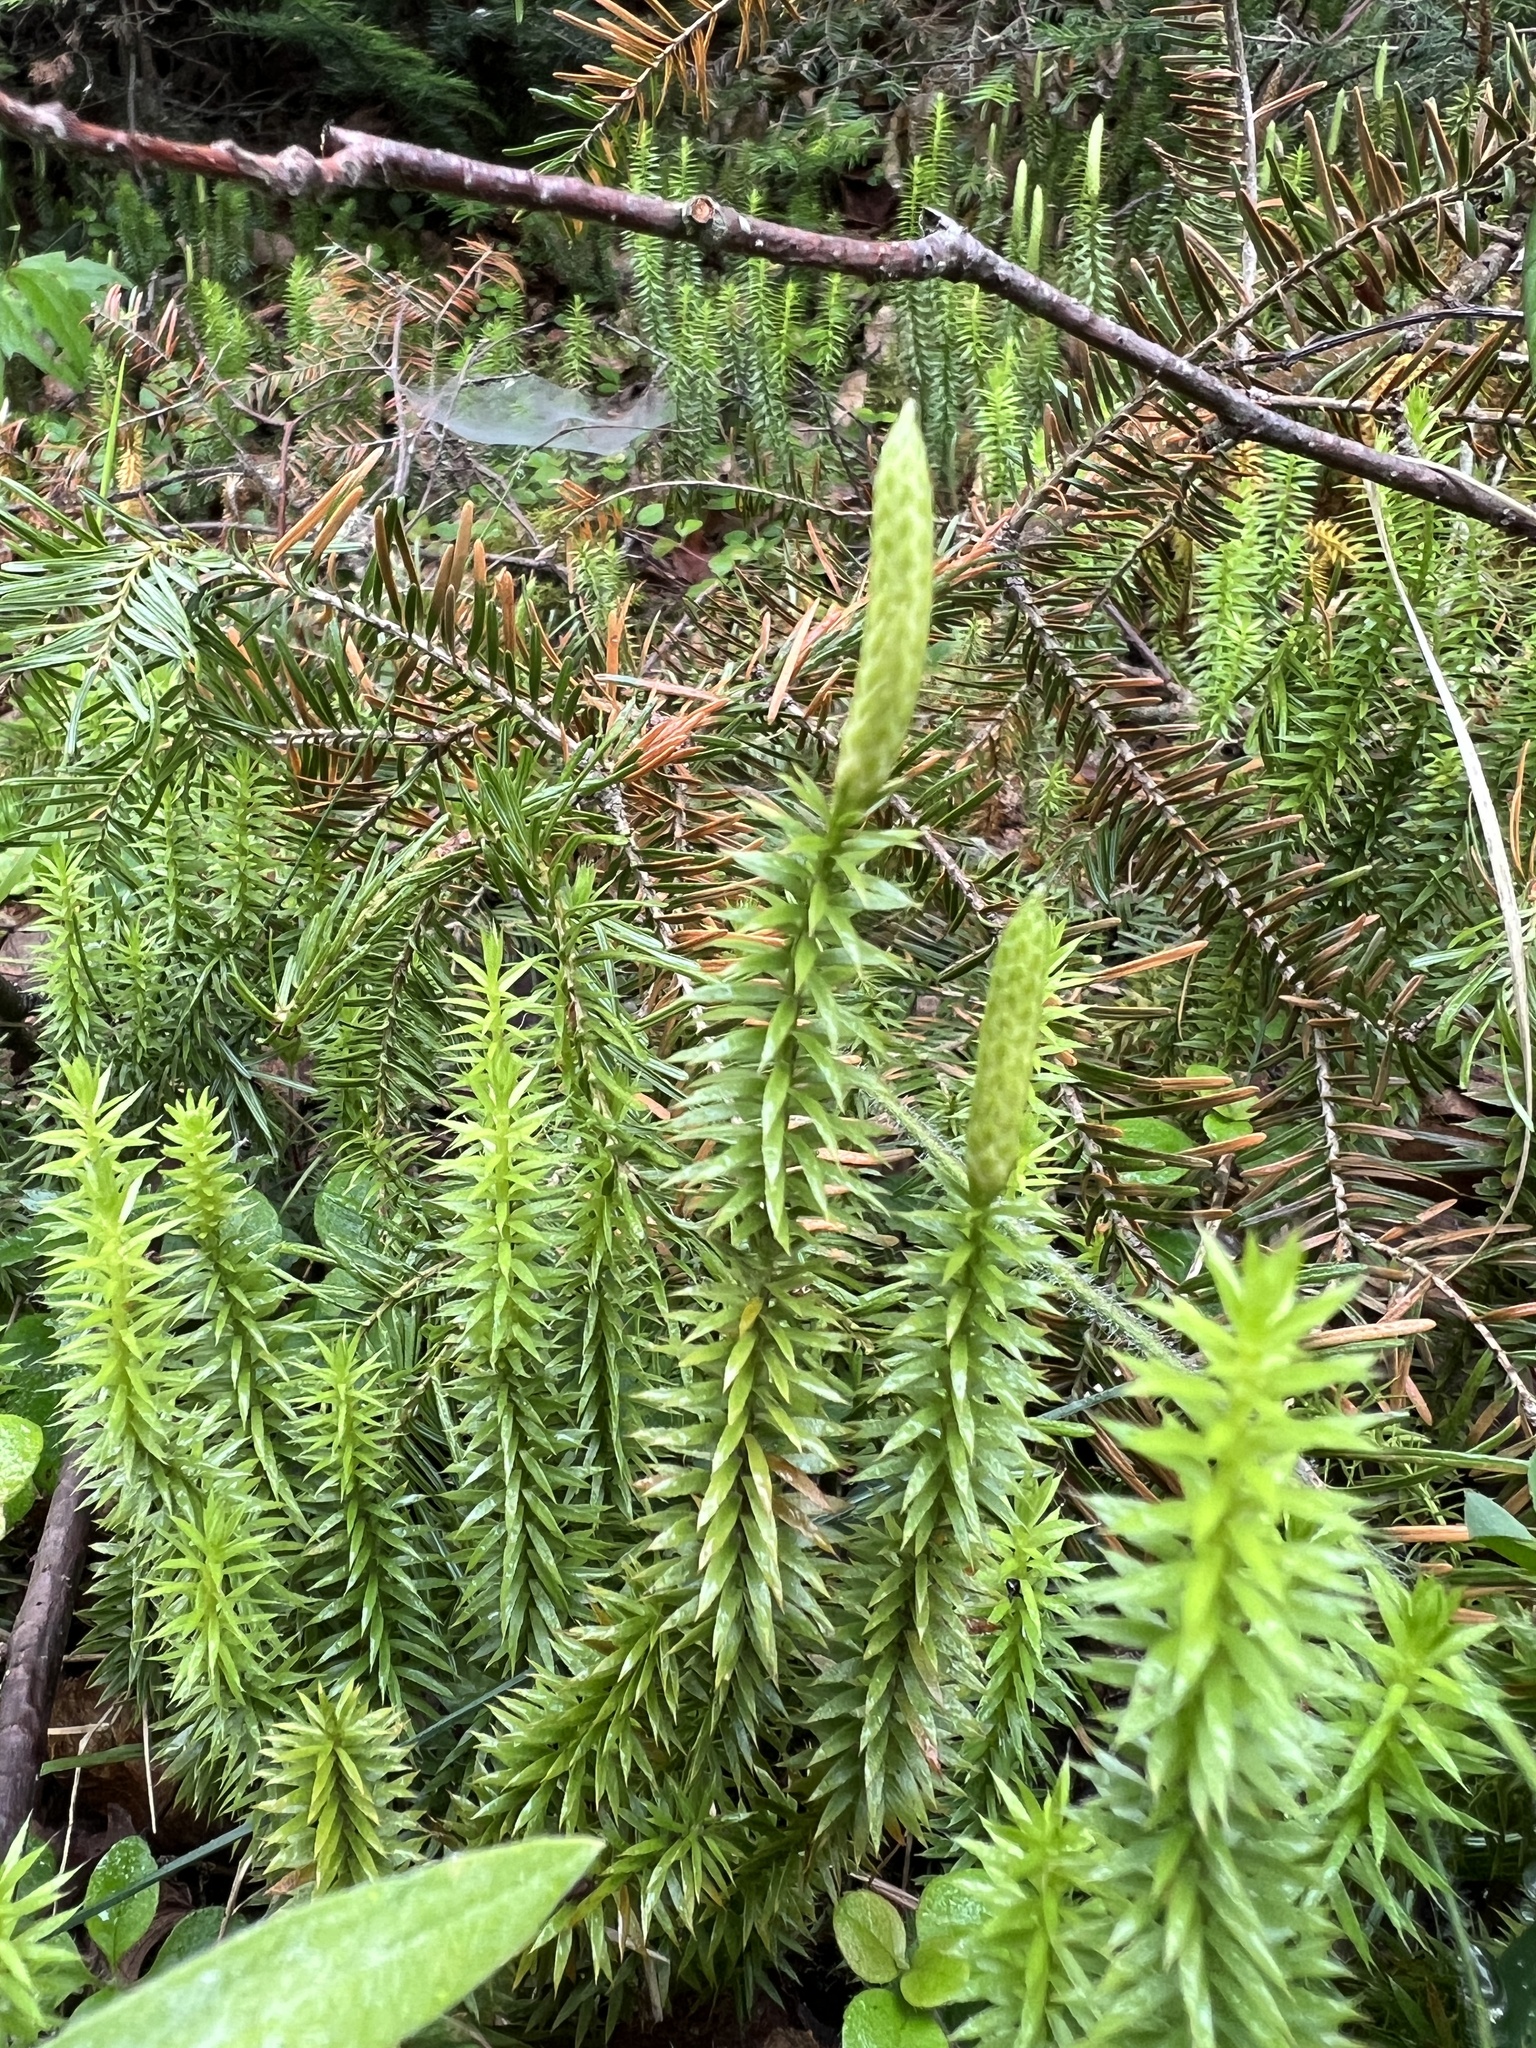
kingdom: Plantae
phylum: Tracheophyta
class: Lycopodiopsida
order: Lycopodiales
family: Lycopodiaceae
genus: Spinulum
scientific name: Spinulum annotinum
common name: Interrupted club-moss
